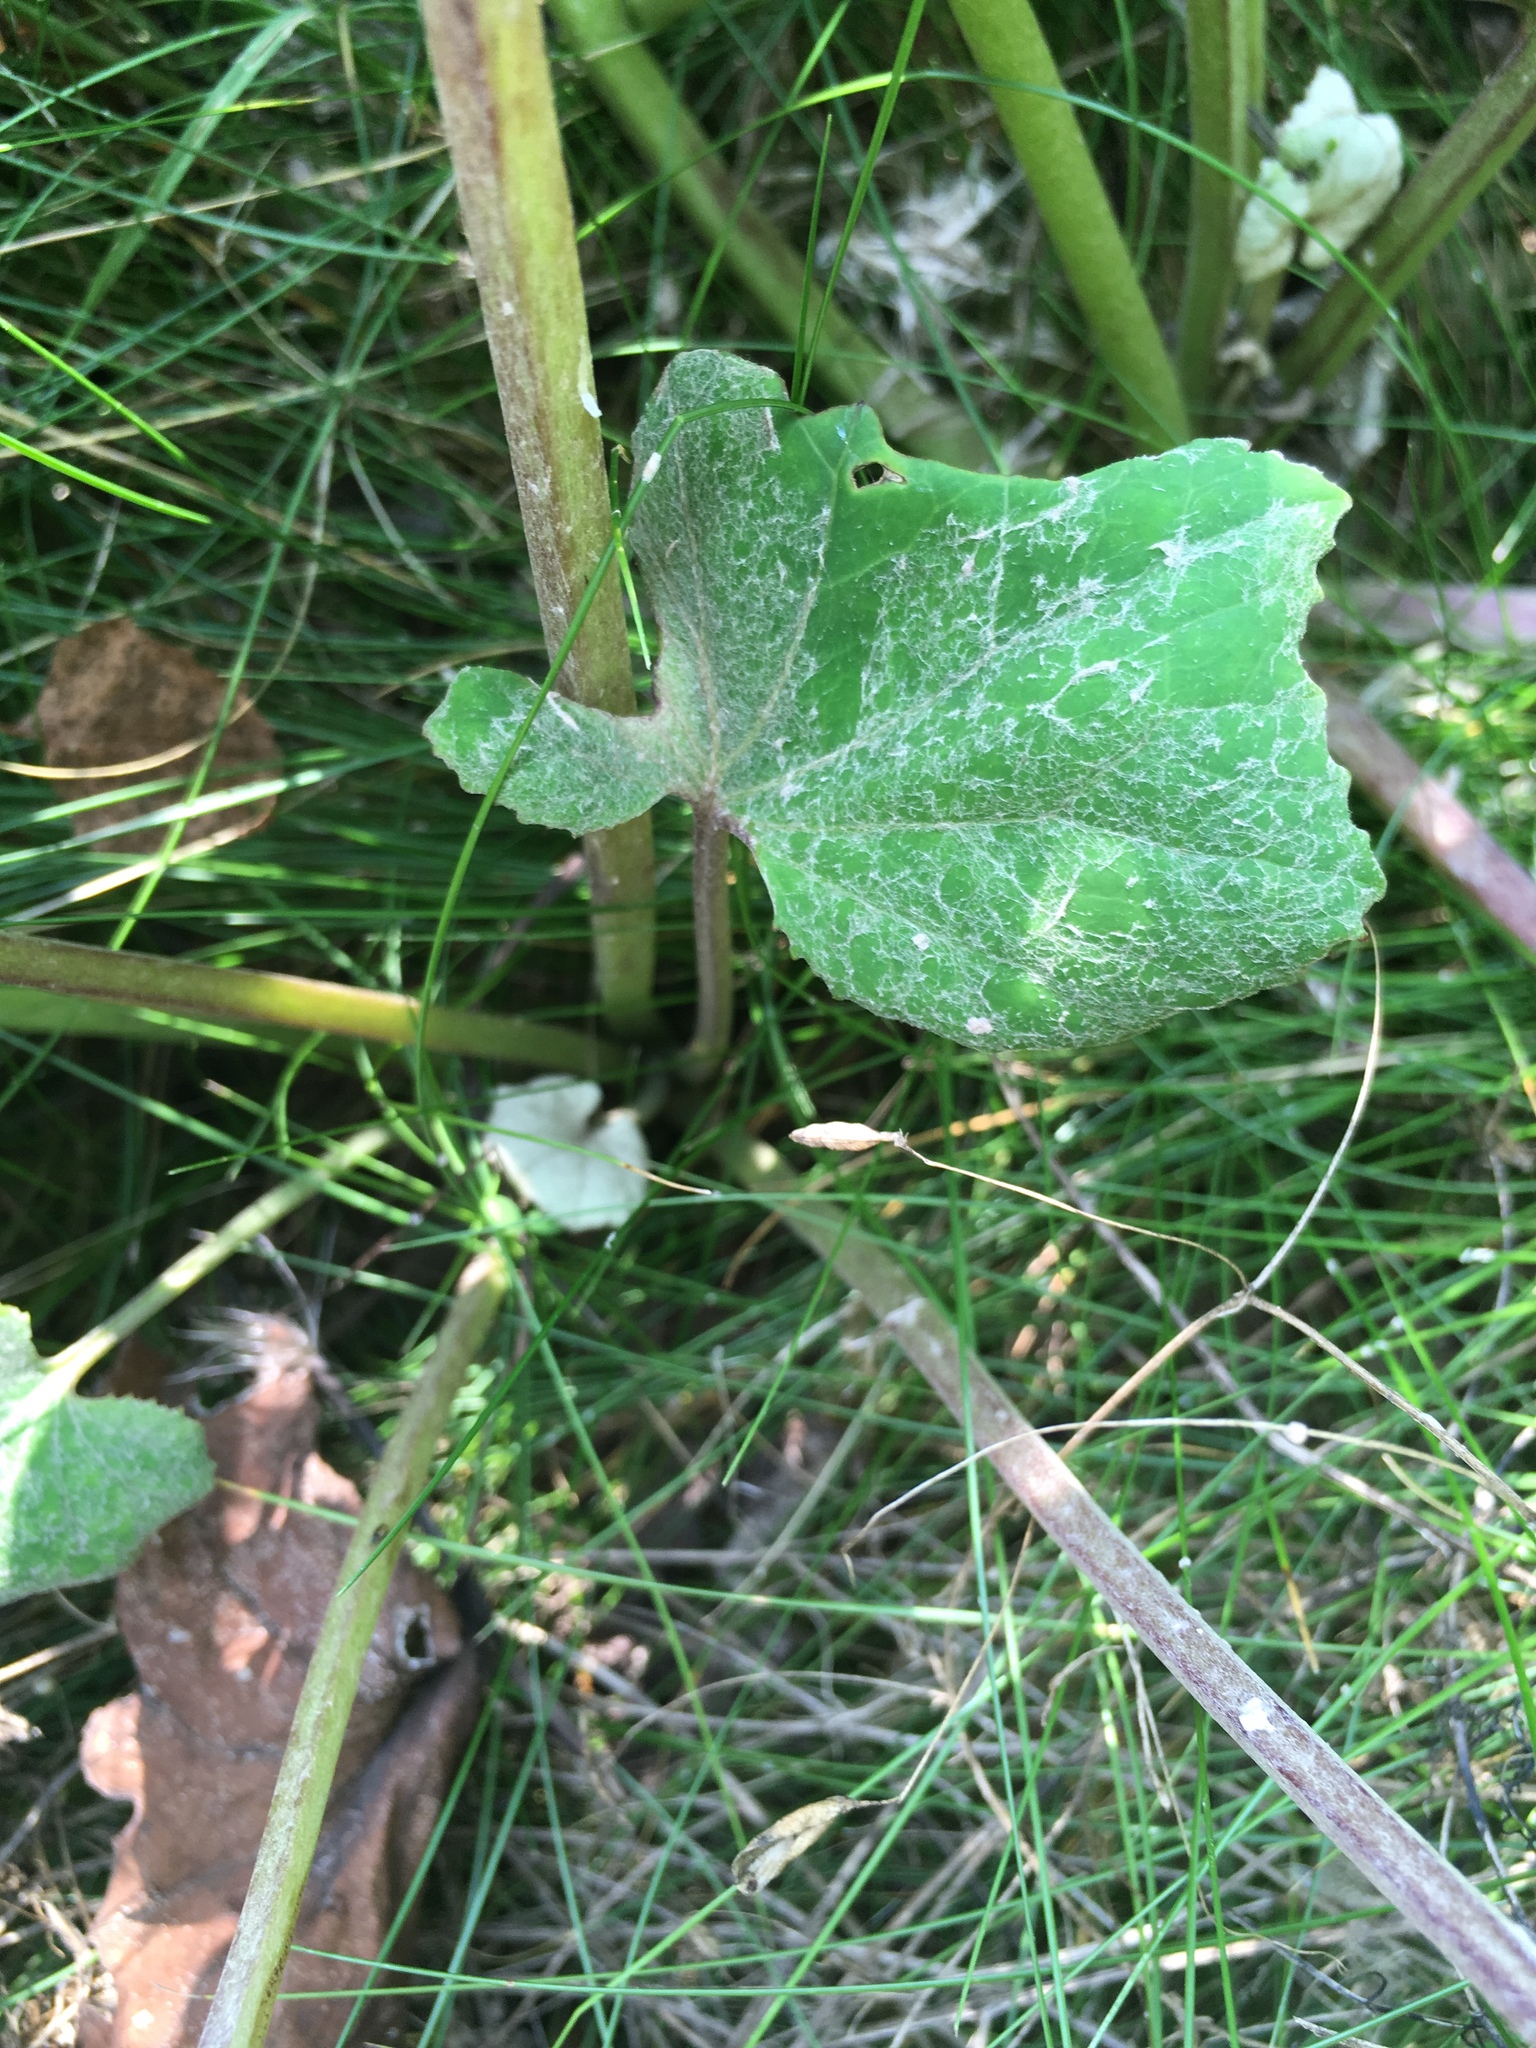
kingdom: Plantae
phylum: Tracheophyta
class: Magnoliopsida
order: Asterales
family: Asteraceae
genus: Tussilago
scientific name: Tussilago farfara
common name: Coltsfoot
